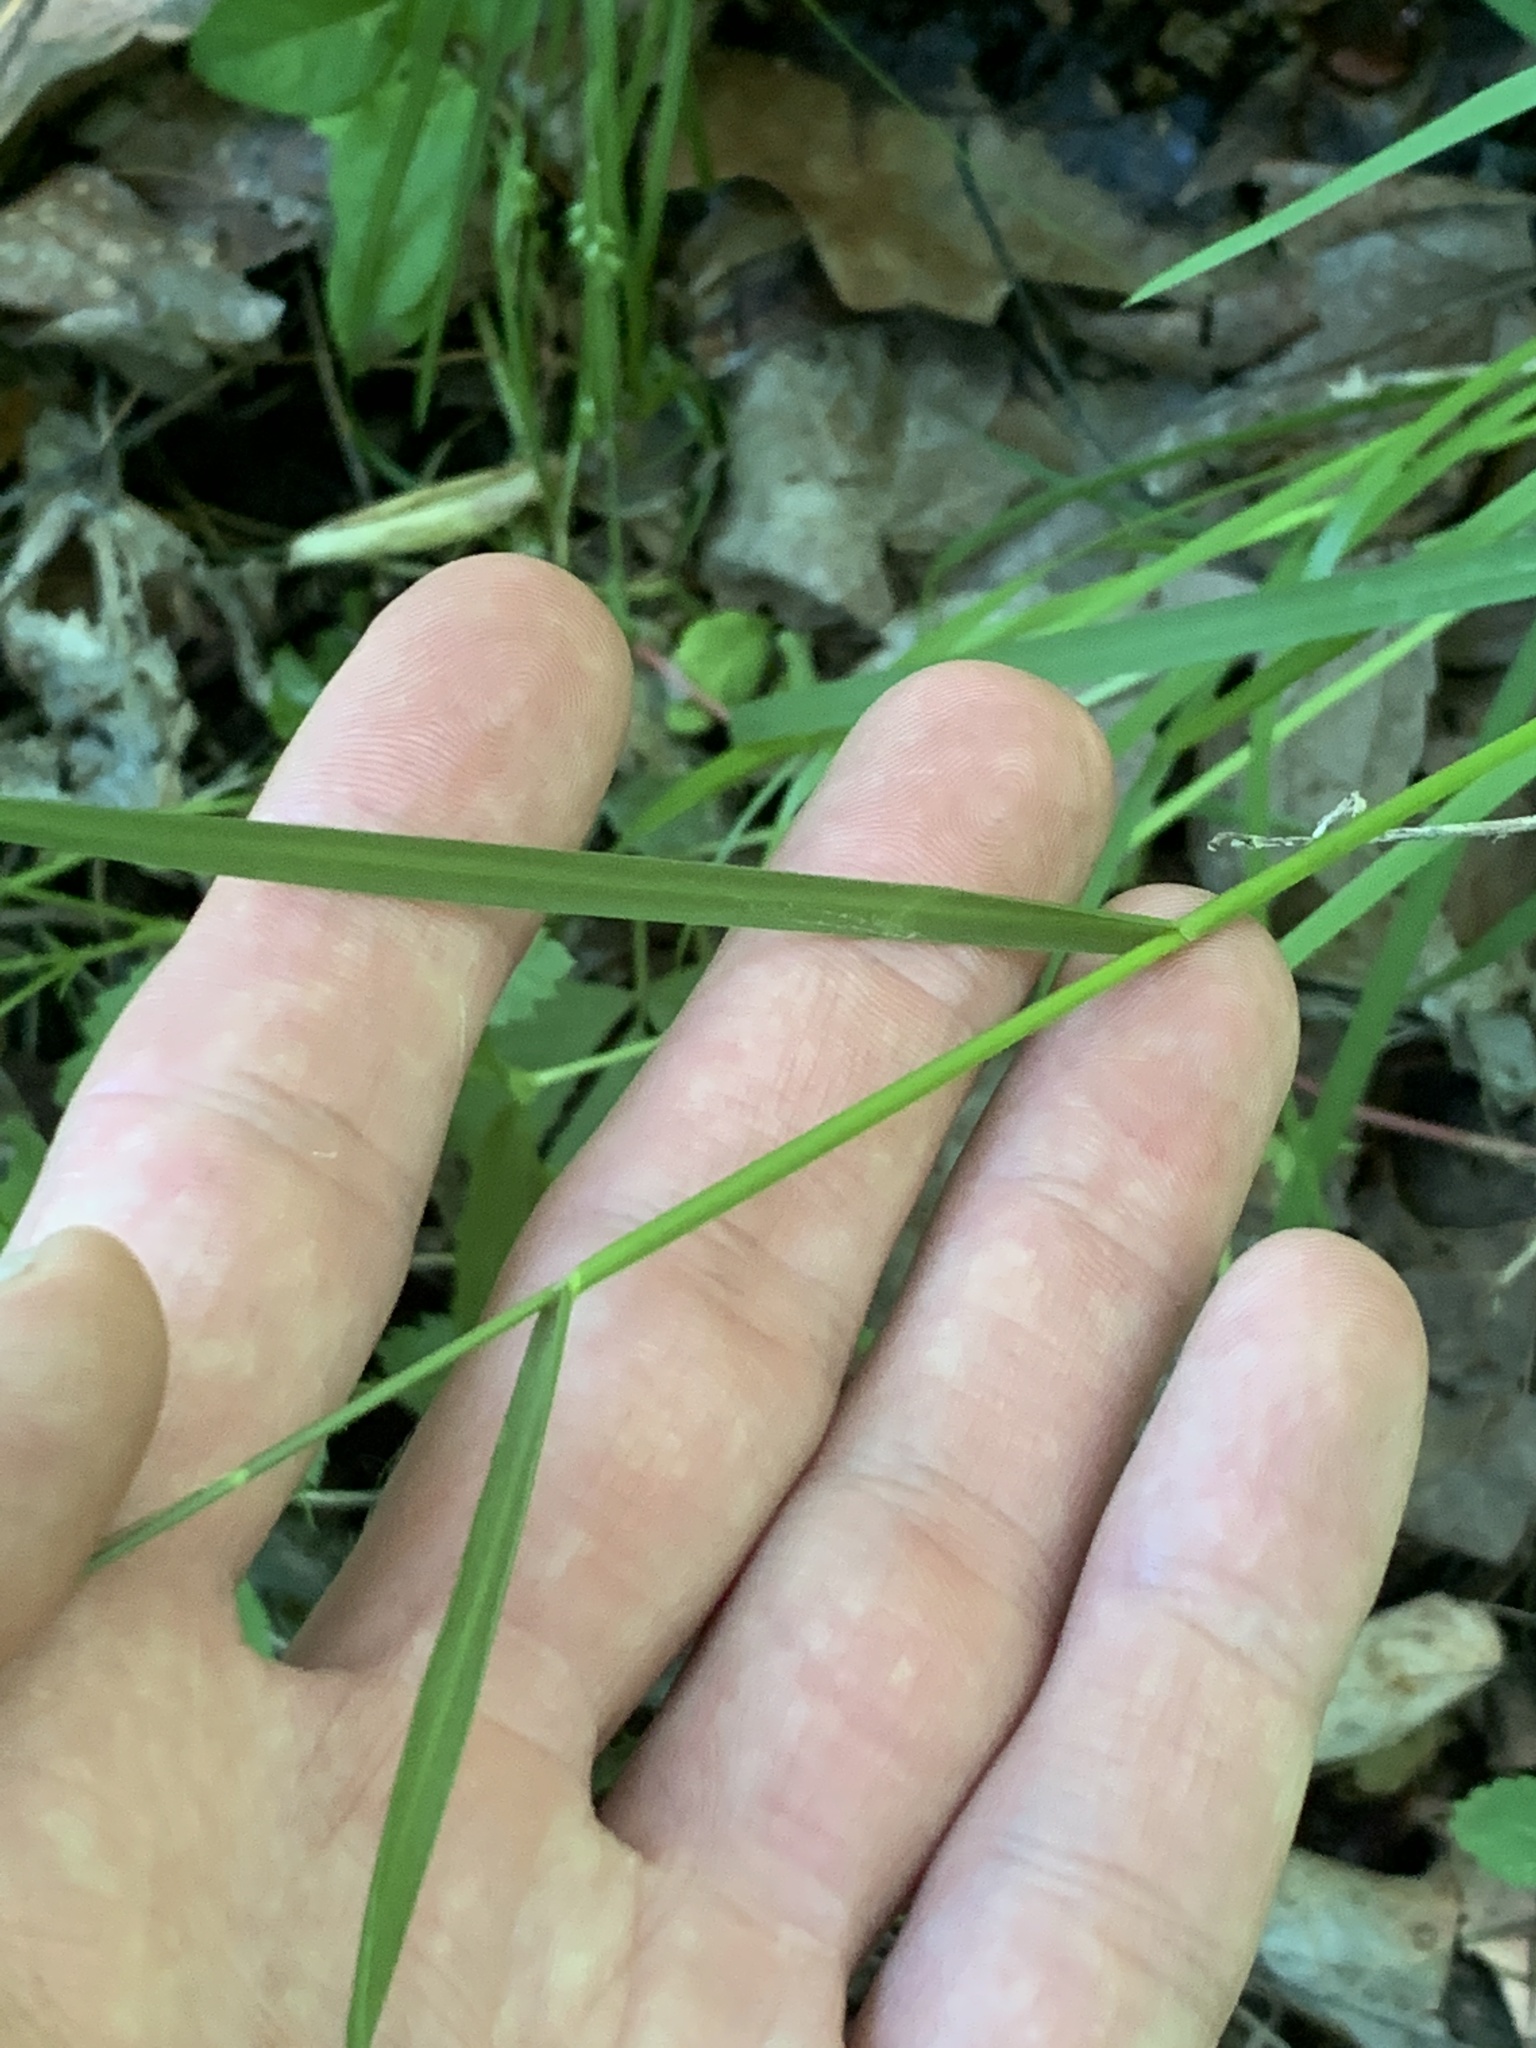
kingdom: Plantae
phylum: Tracheophyta
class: Liliopsida
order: Poales
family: Poaceae
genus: Glyceria
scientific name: Glyceria striata
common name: Fowl manna grass
